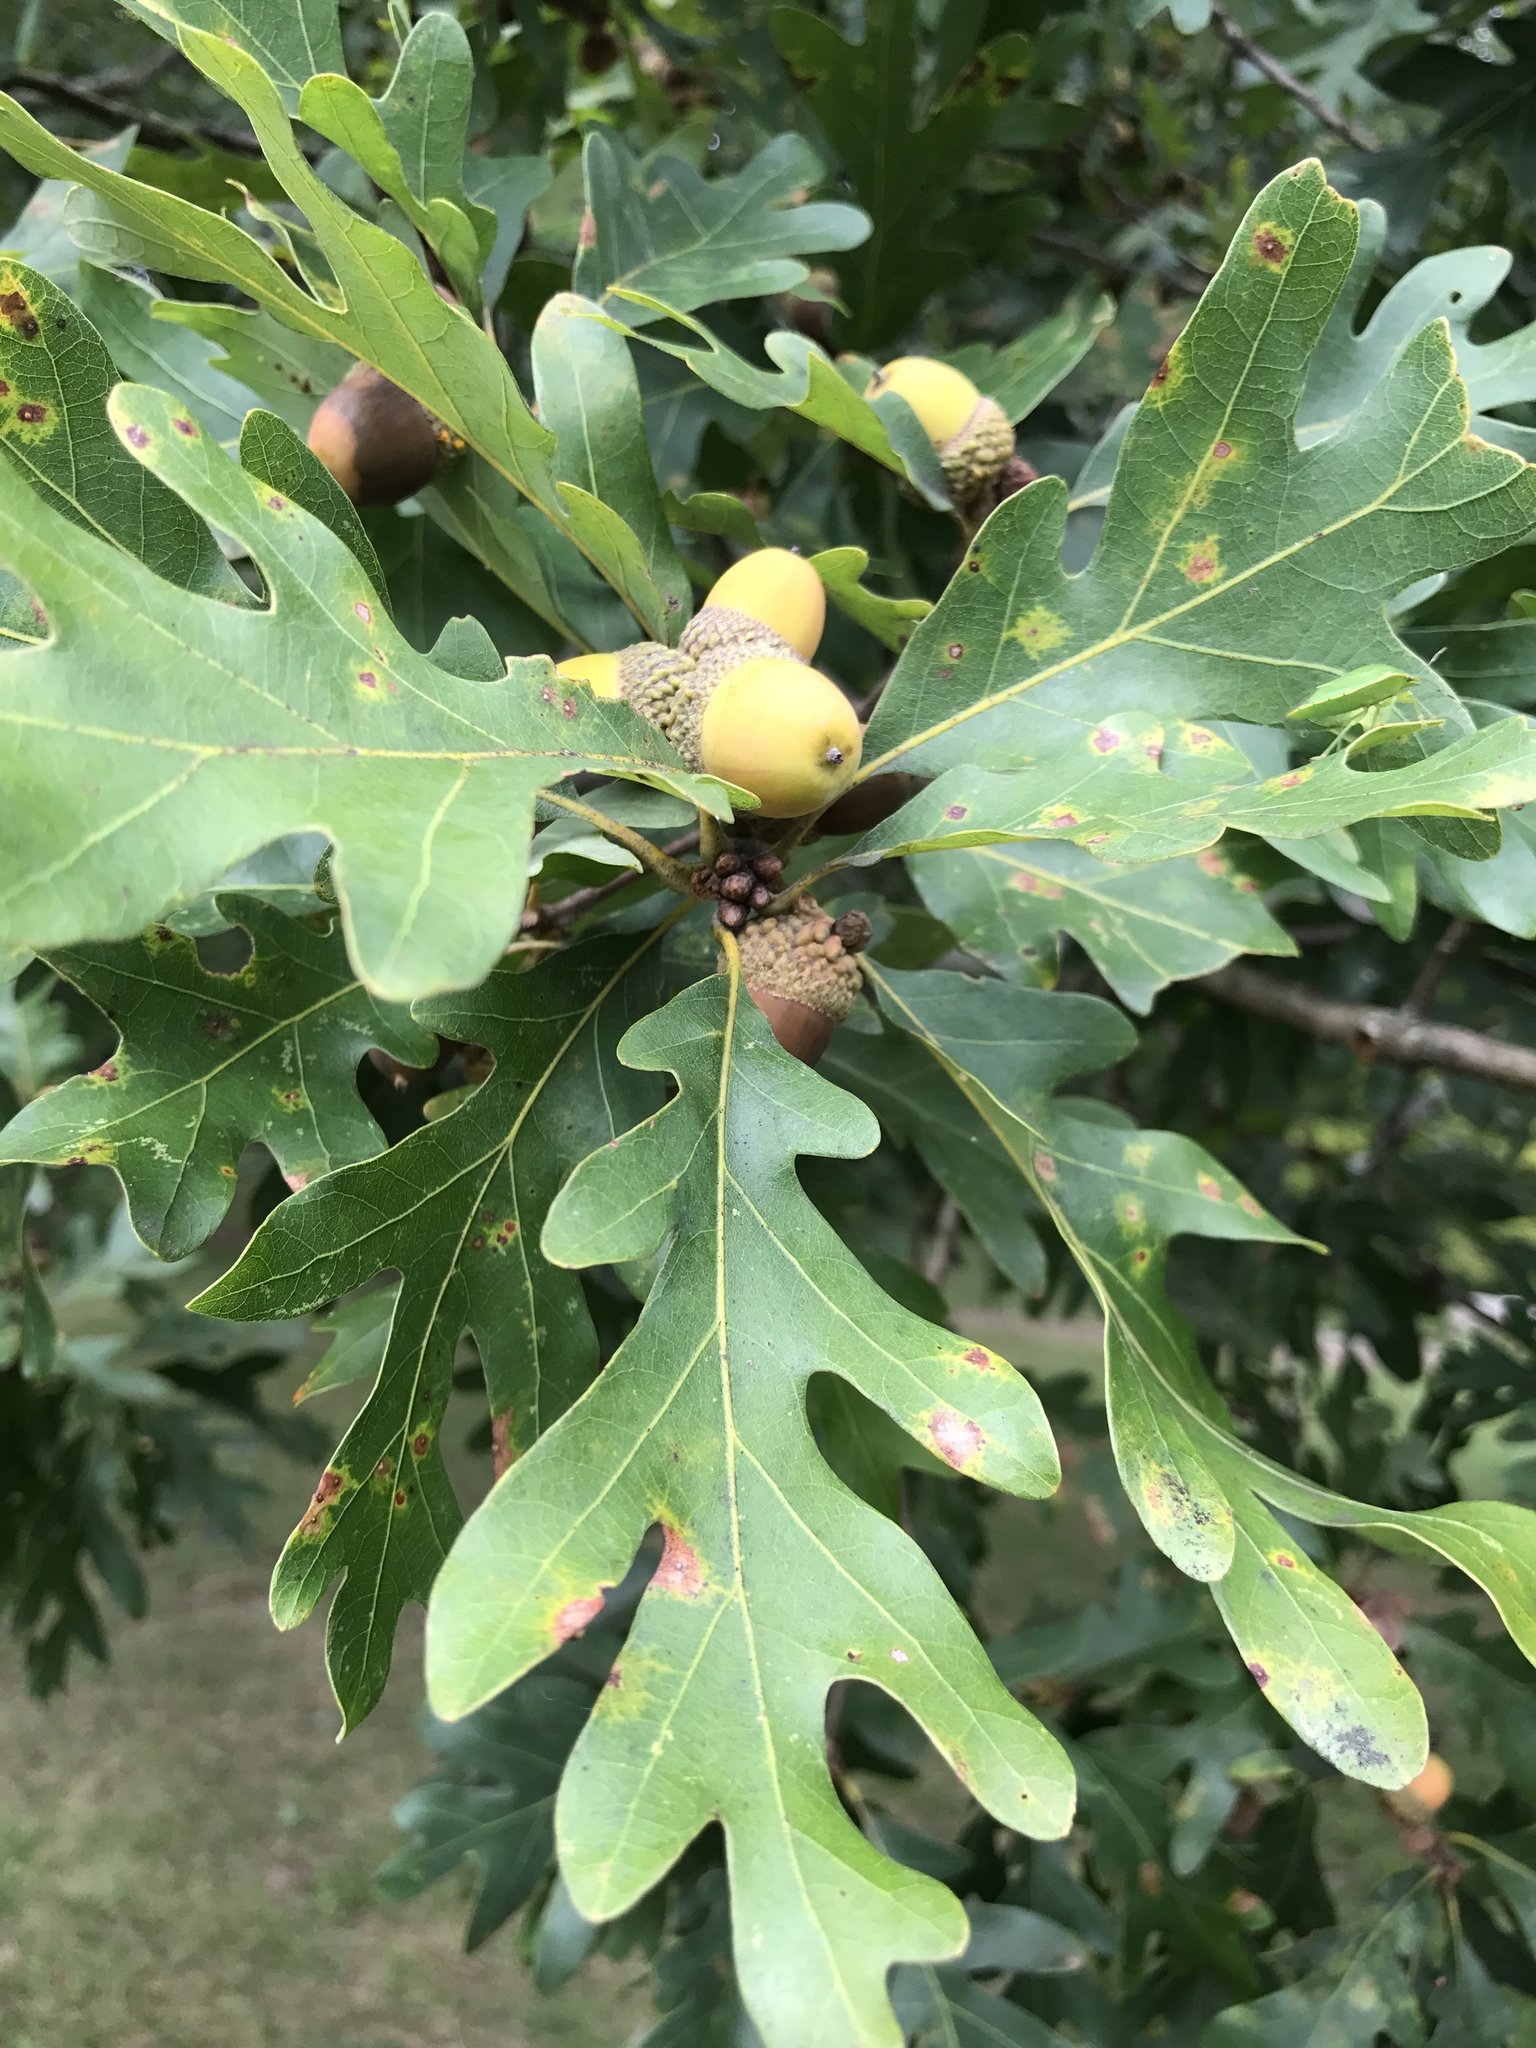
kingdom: Plantae
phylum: Tracheophyta
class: Magnoliopsida
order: Fagales
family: Fagaceae
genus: Quercus
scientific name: Quercus alba
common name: White oak
